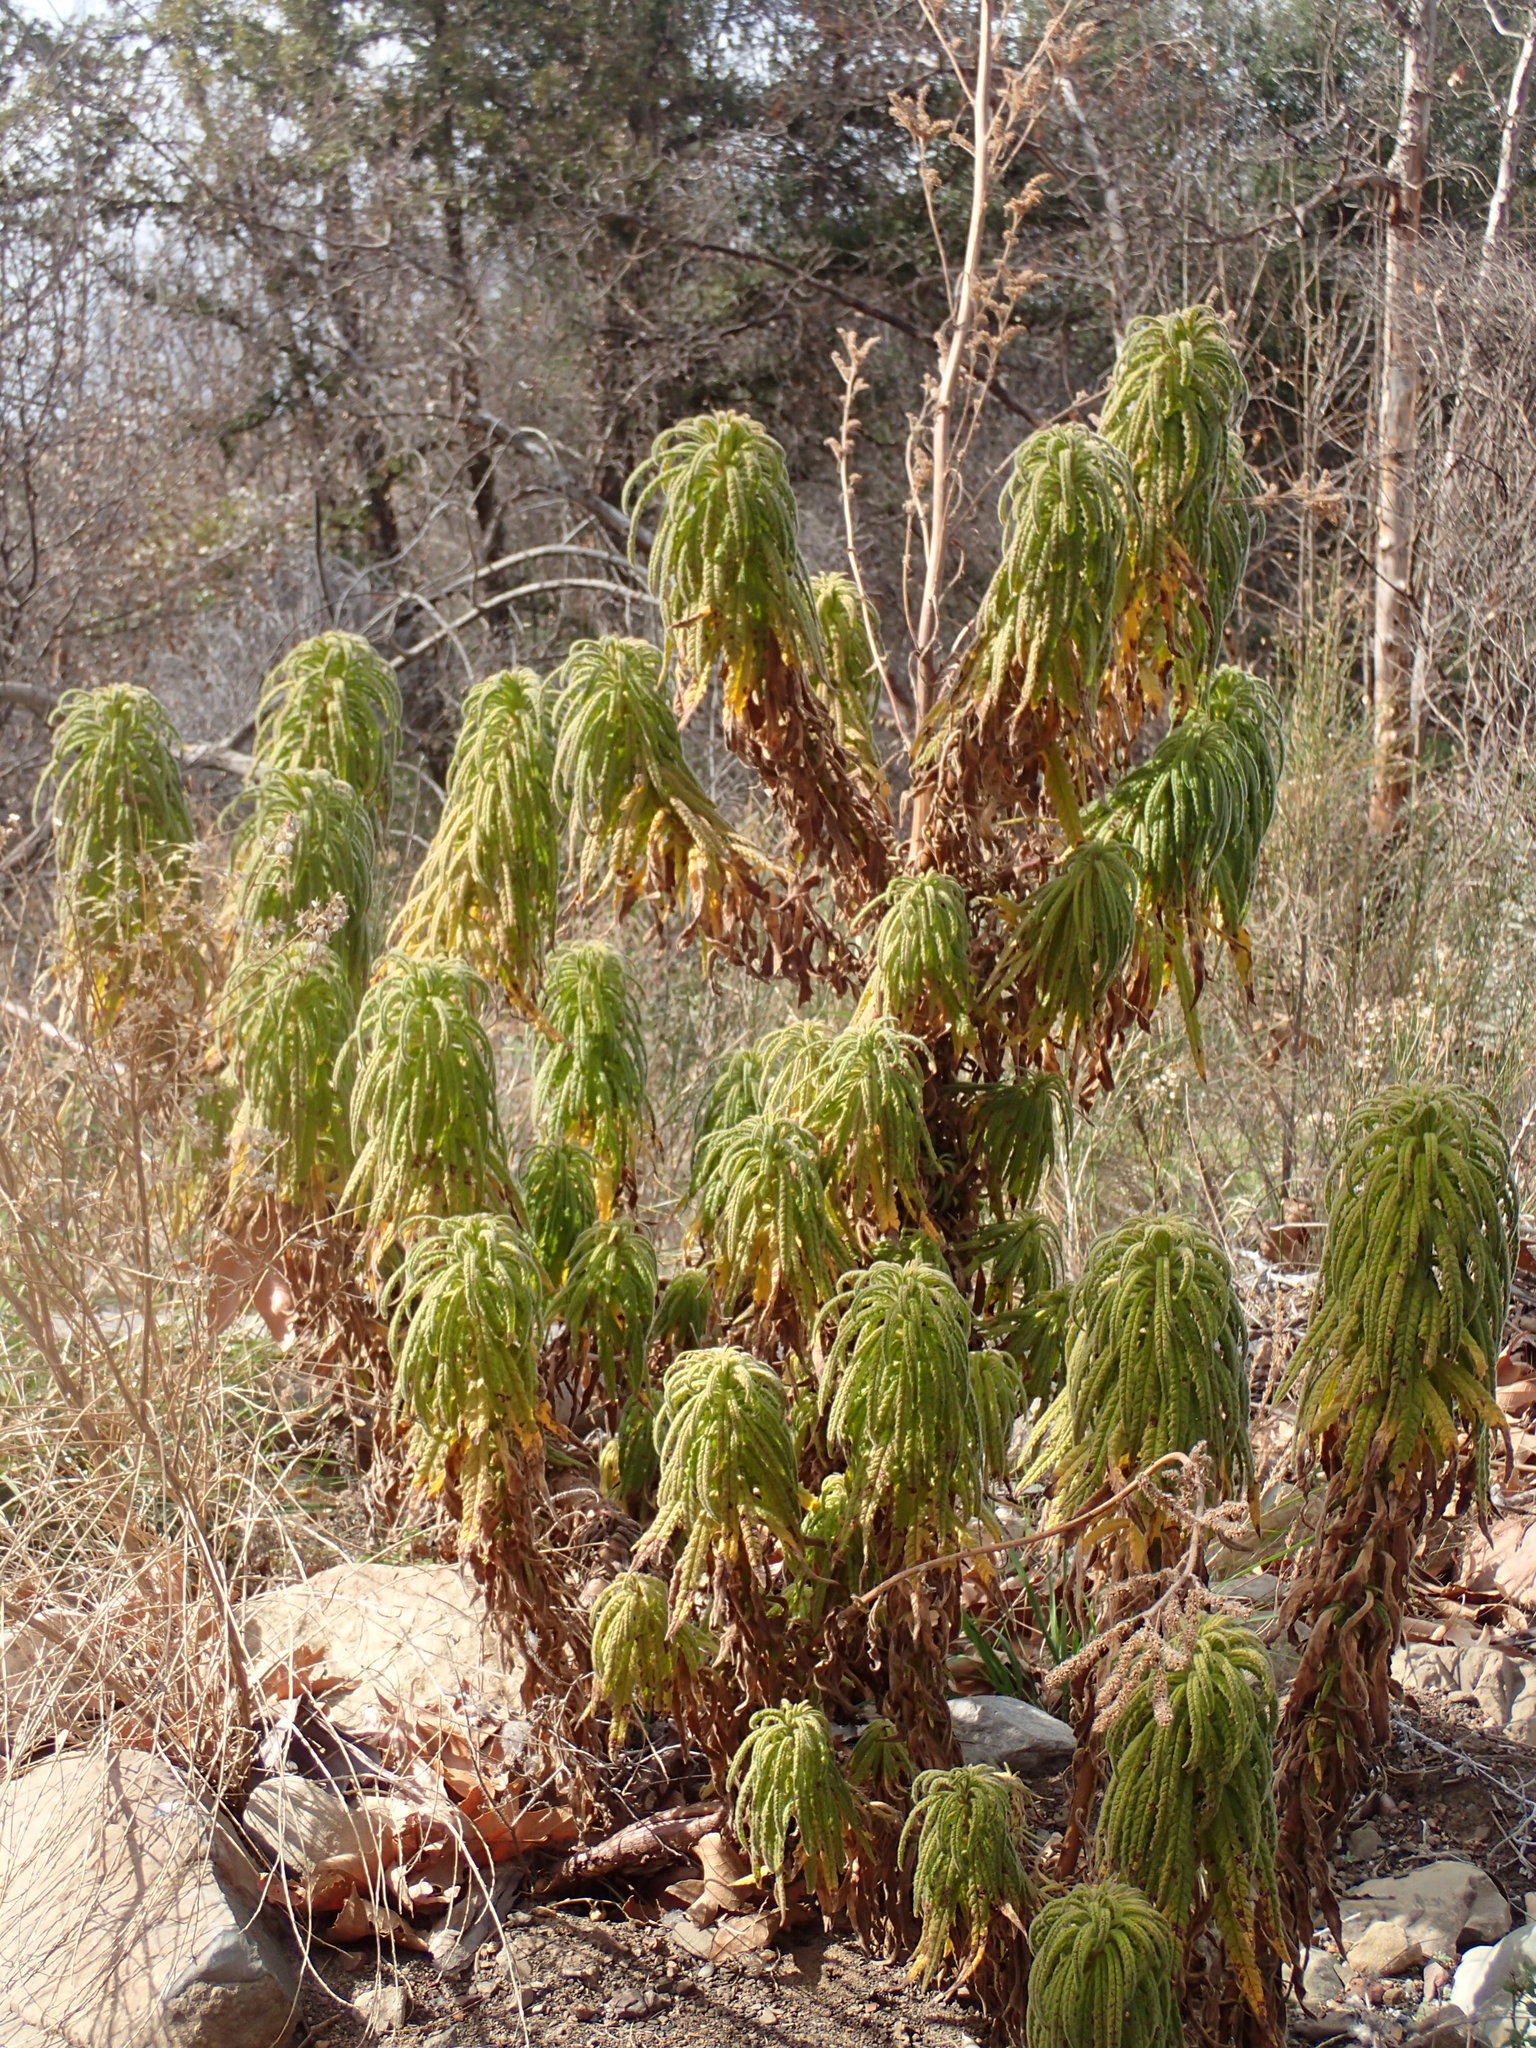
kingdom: Plantae
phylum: Tracheophyta
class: Magnoliopsida
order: Boraginales
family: Namaceae
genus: Turricula
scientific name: Turricula parryi
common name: Poodle-dog-bush
